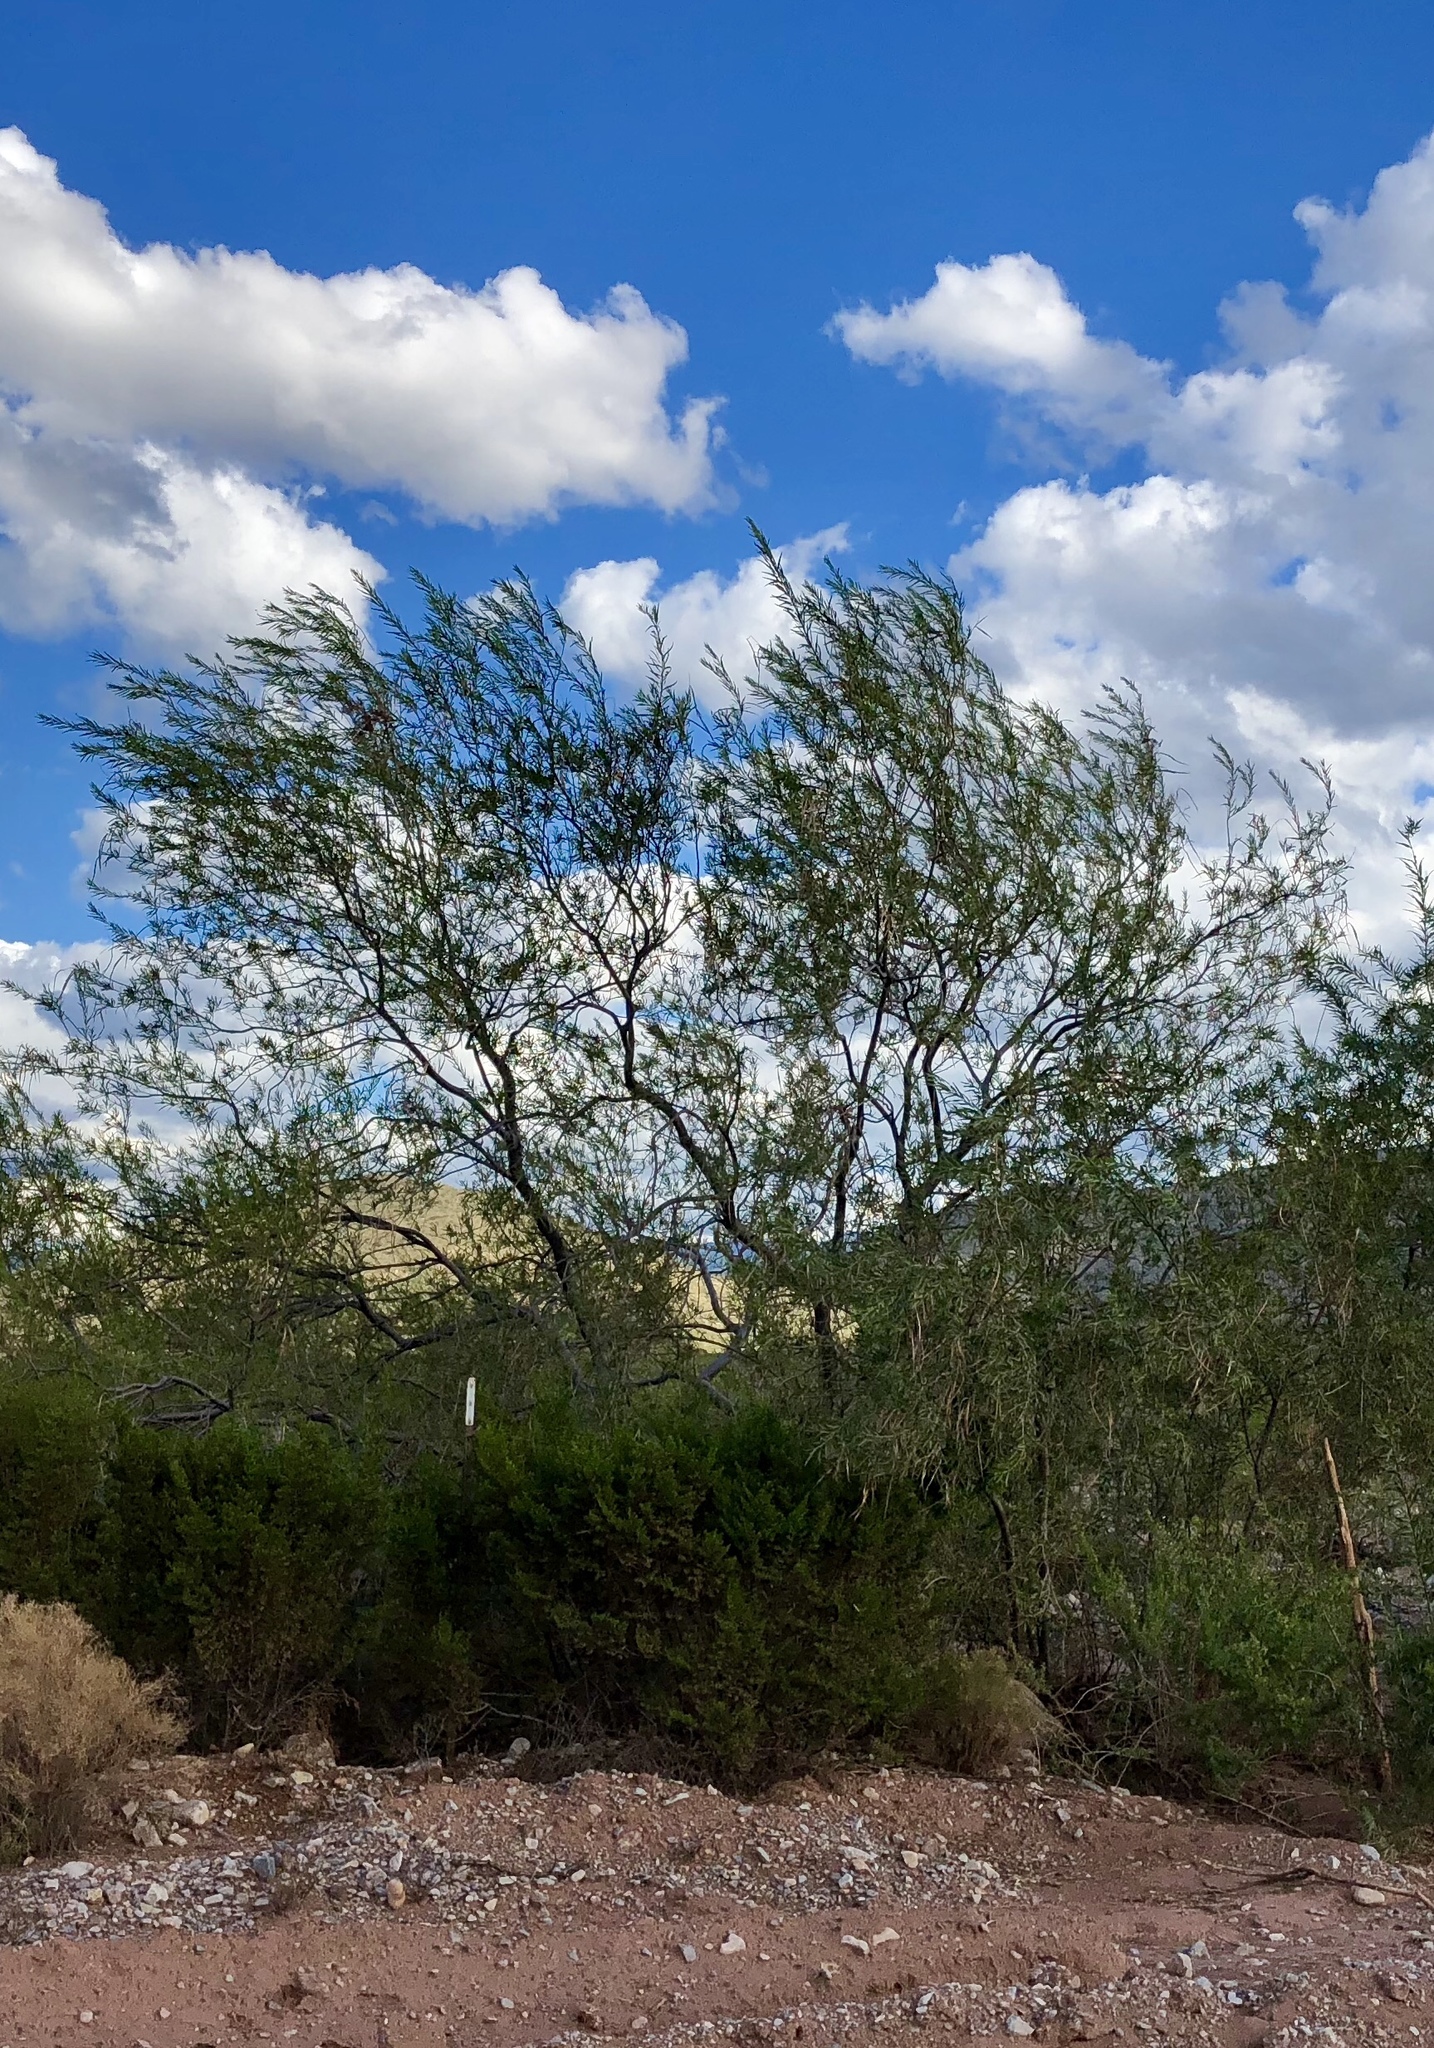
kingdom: Plantae
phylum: Tracheophyta
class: Magnoliopsida
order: Lamiales
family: Bignoniaceae
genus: Chilopsis
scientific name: Chilopsis linearis
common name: Desert-willow
